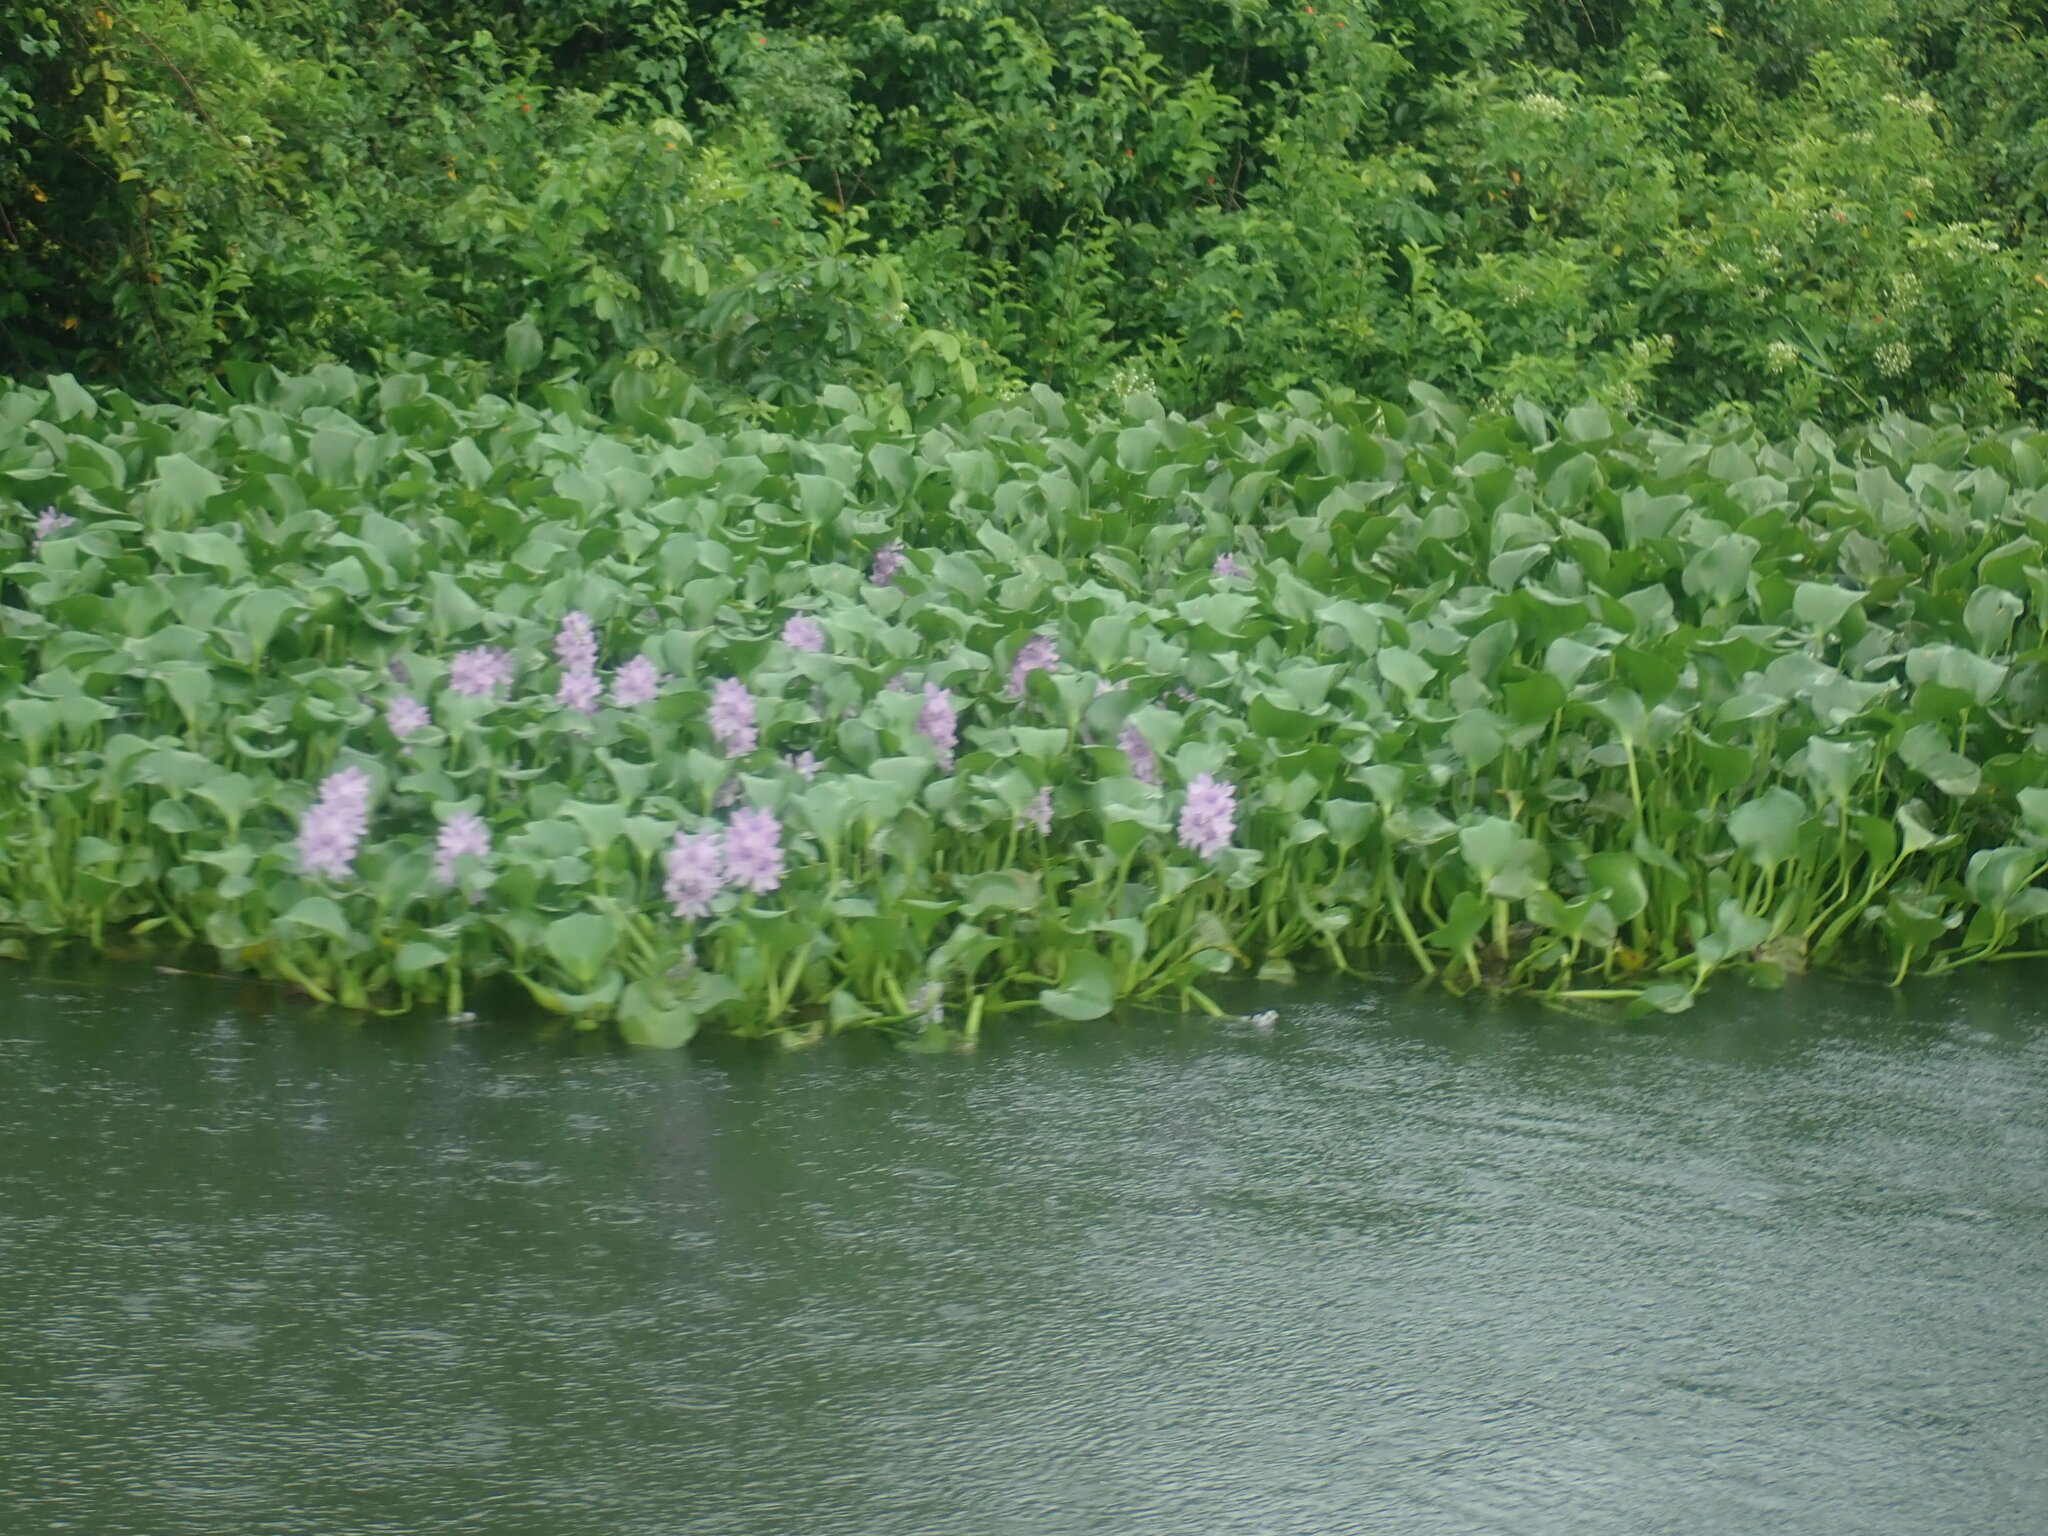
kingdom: Plantae
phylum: Tracheophyta
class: Liliopsida
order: Commelinales
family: Pontederiaceae
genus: Pontederia
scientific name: Pontederia crassipes
